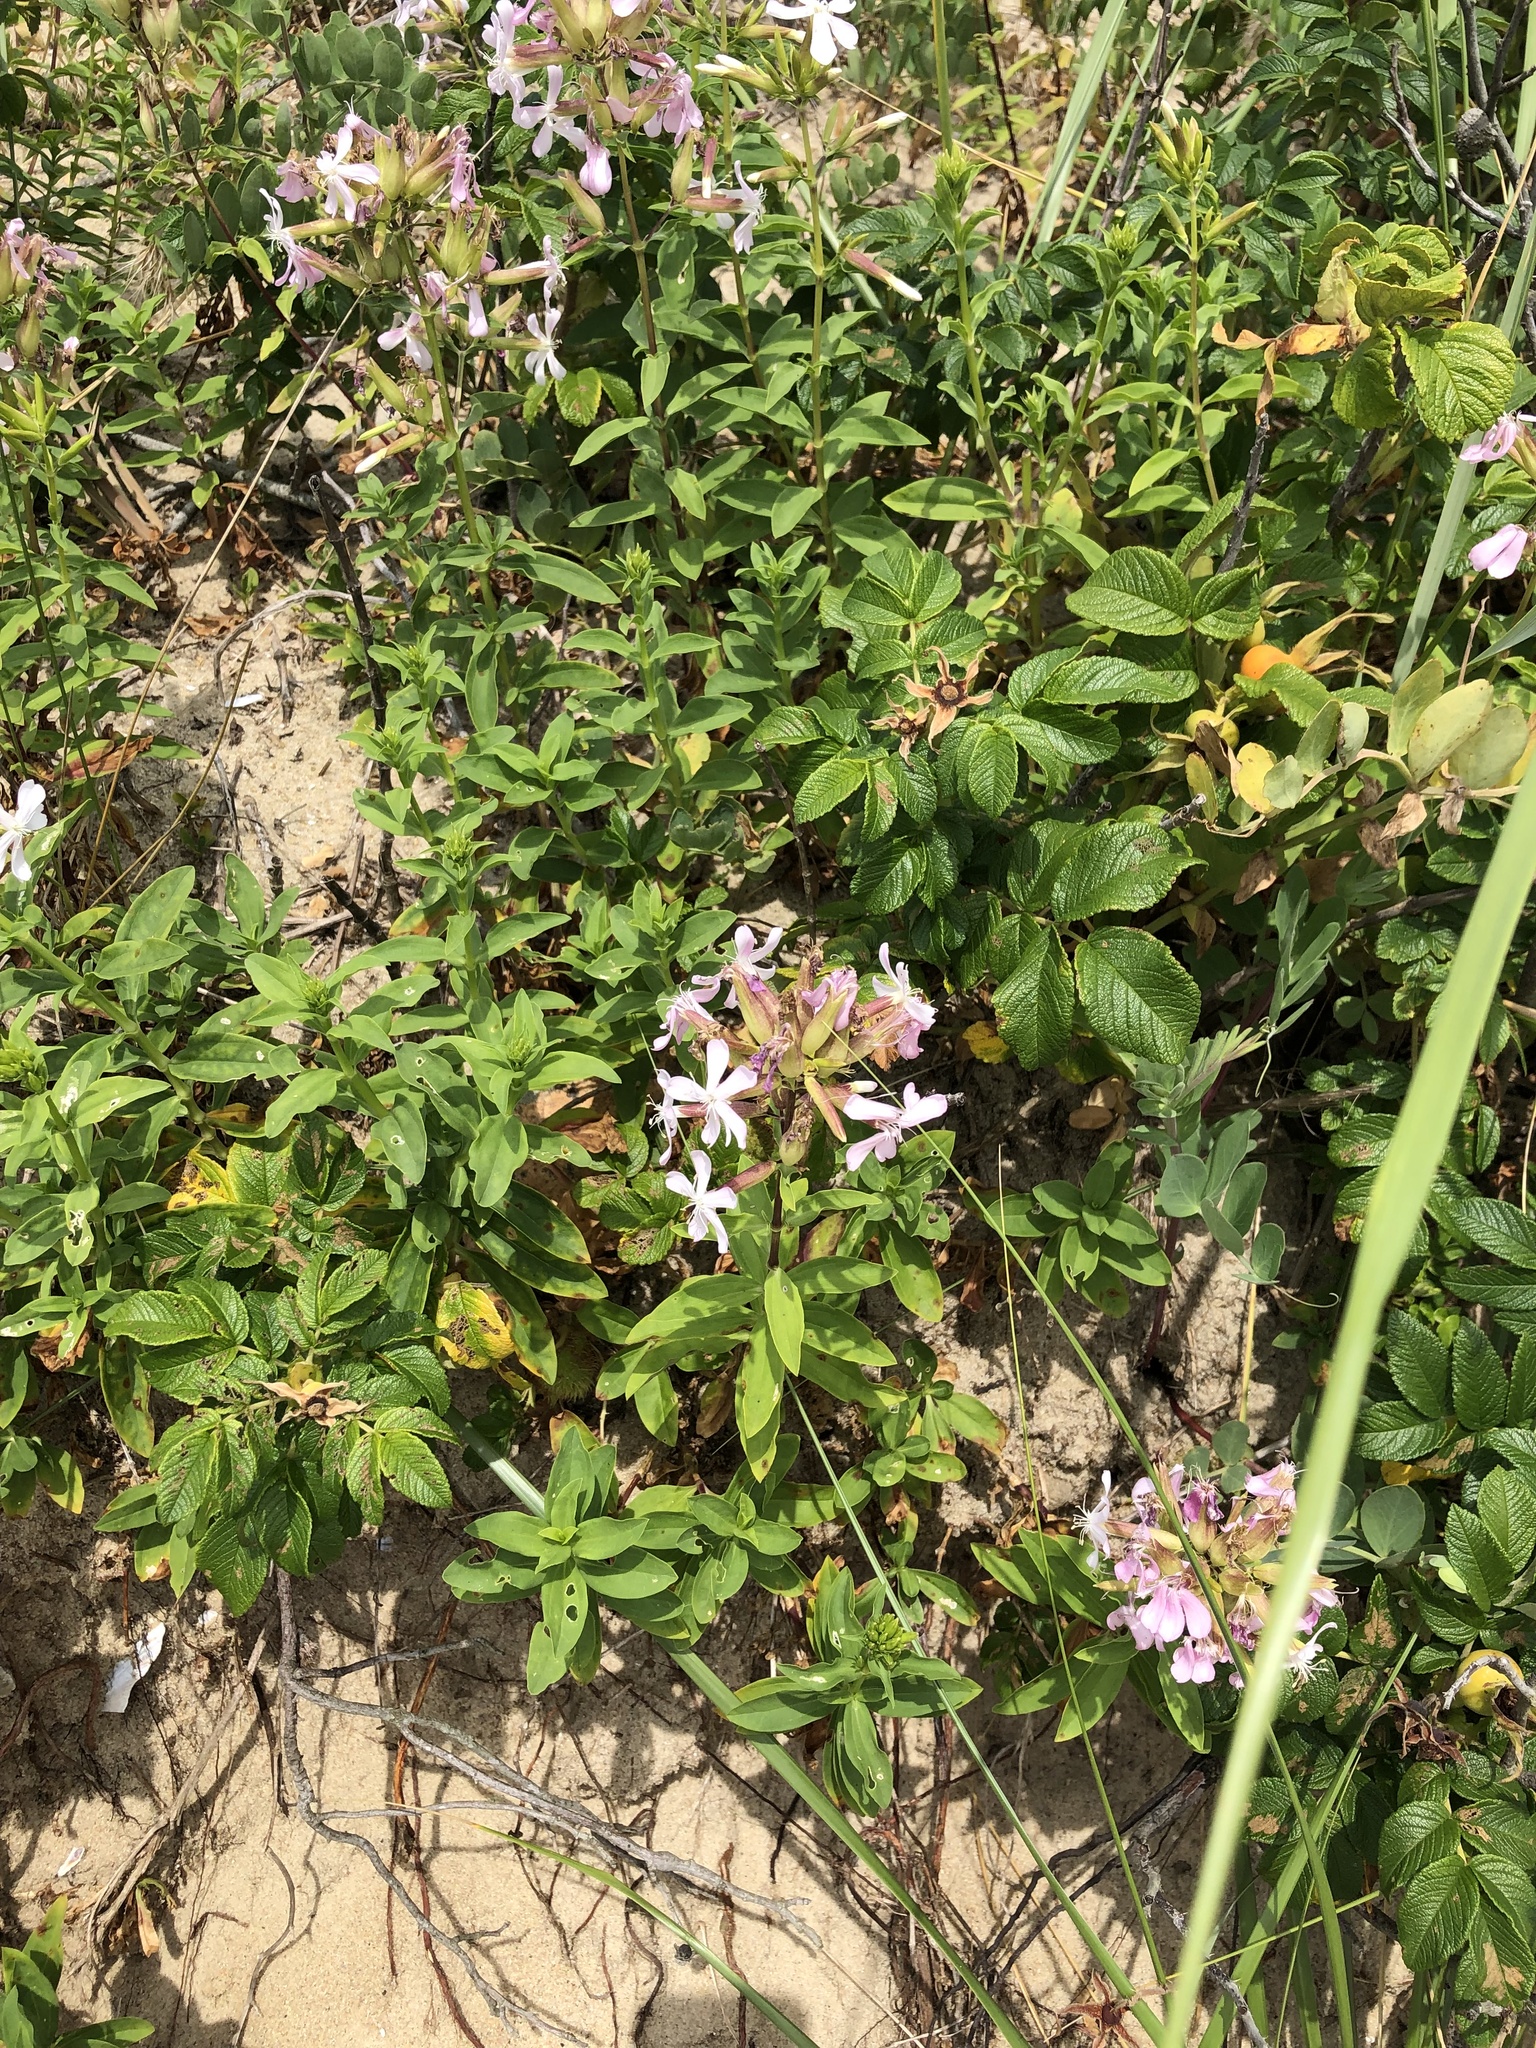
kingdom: Plantae
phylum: Tracheophyta
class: Magnoliopsida
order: Caryophyllales
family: Caryophyllaceae
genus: Saponaria
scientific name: Saponaria officinalis
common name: Soapwort
